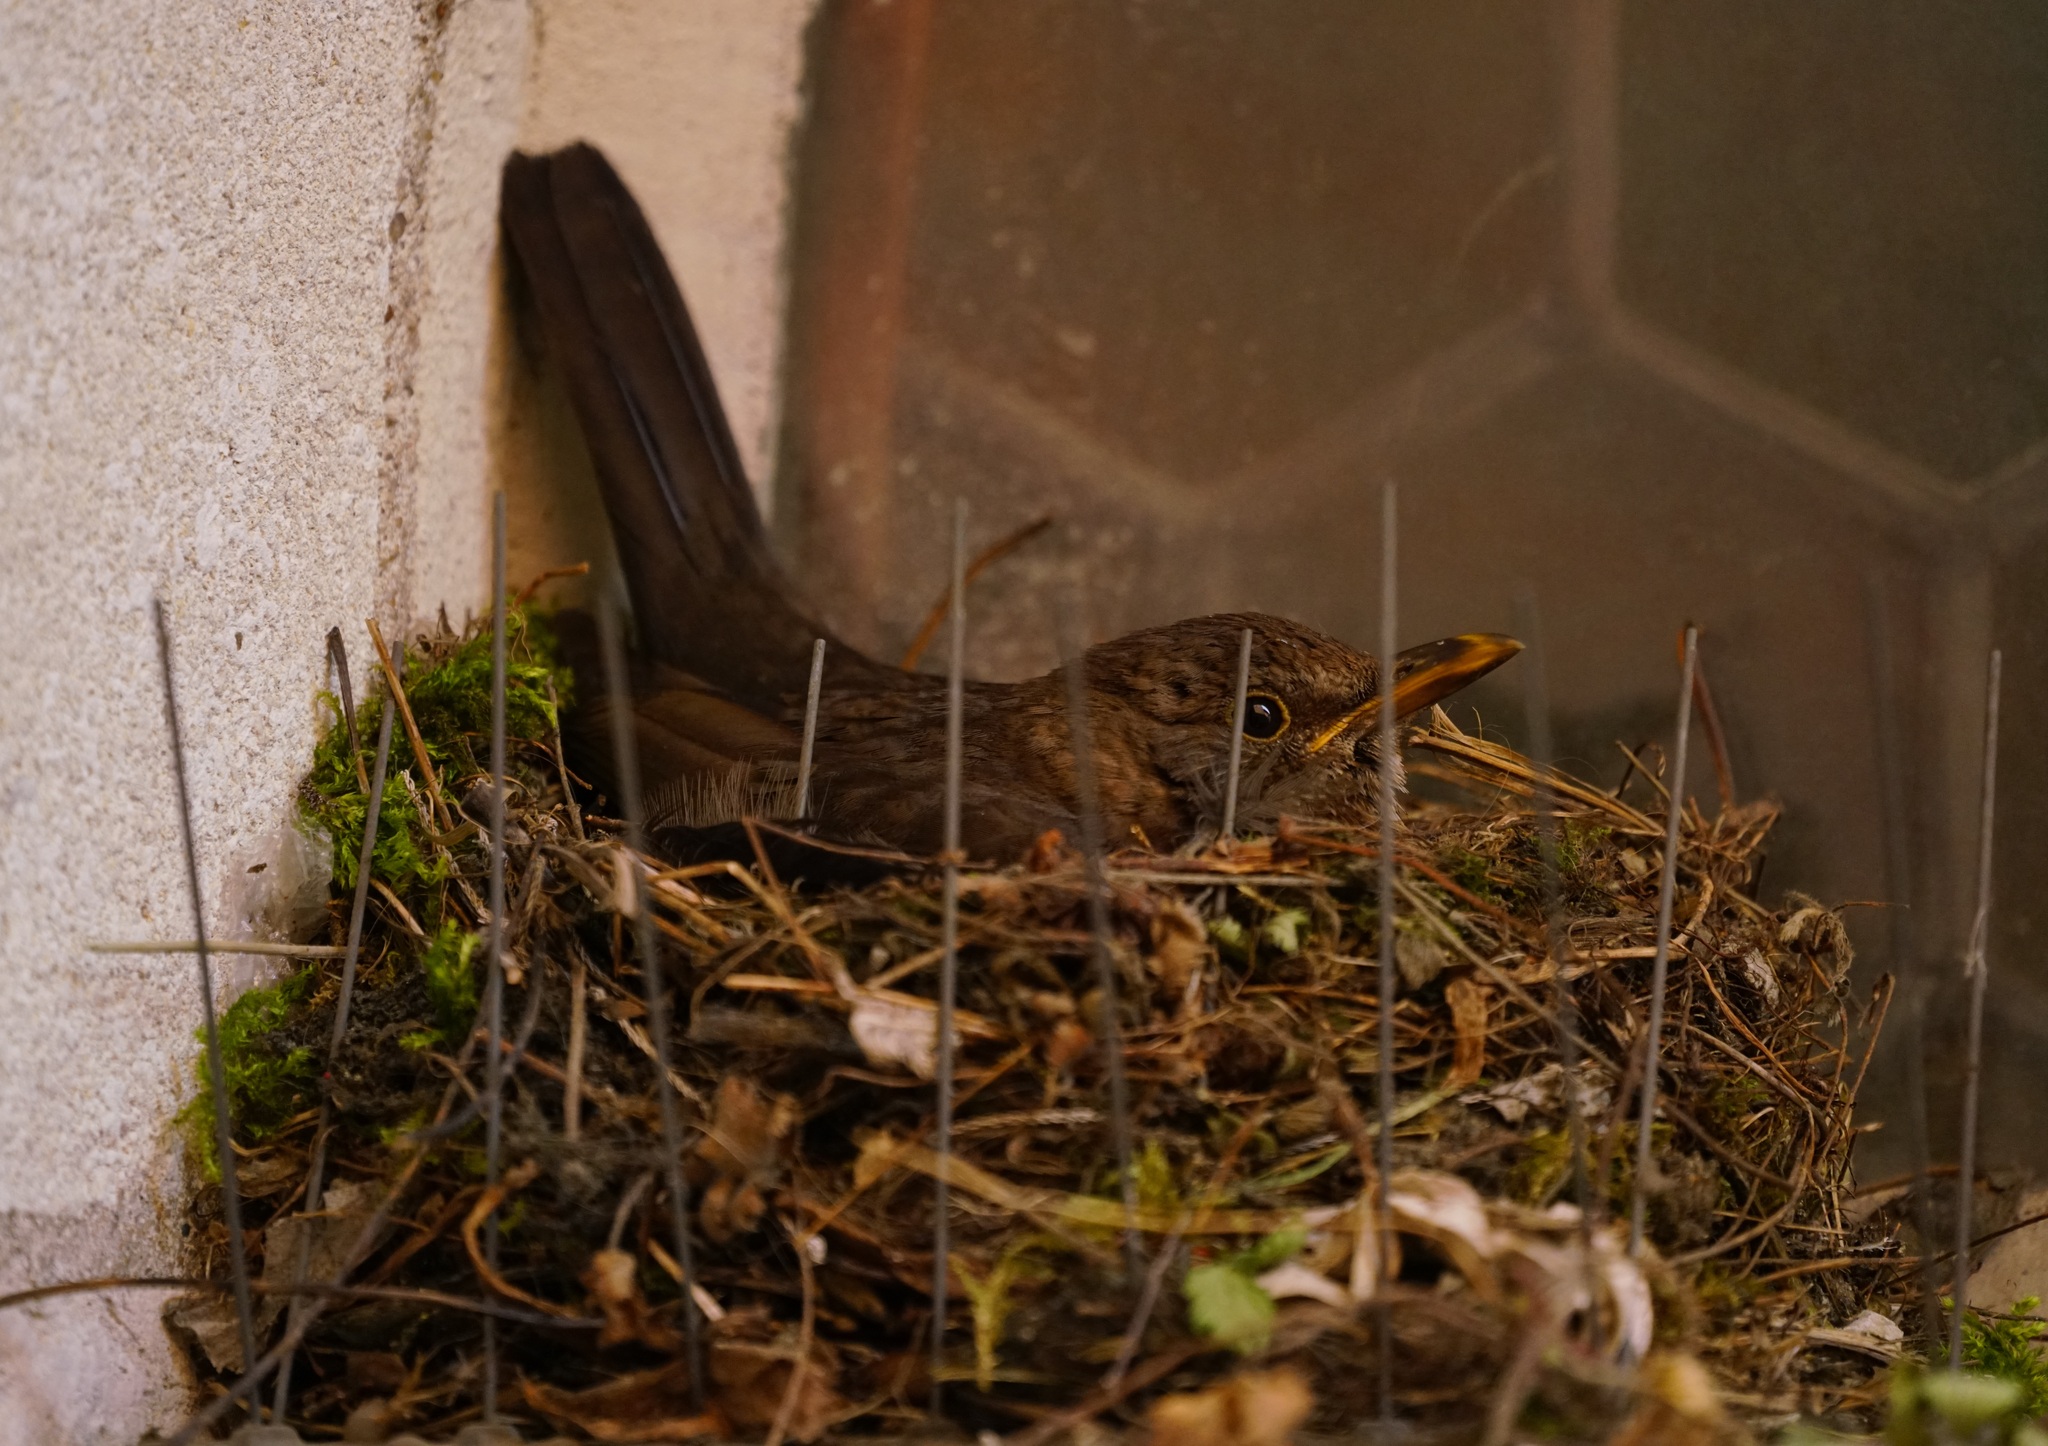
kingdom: Animalia
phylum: Chordata
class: Aves
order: Passeriformes
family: Turdidae
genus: Turdus
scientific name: Turdus merula
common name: Common blackbird
